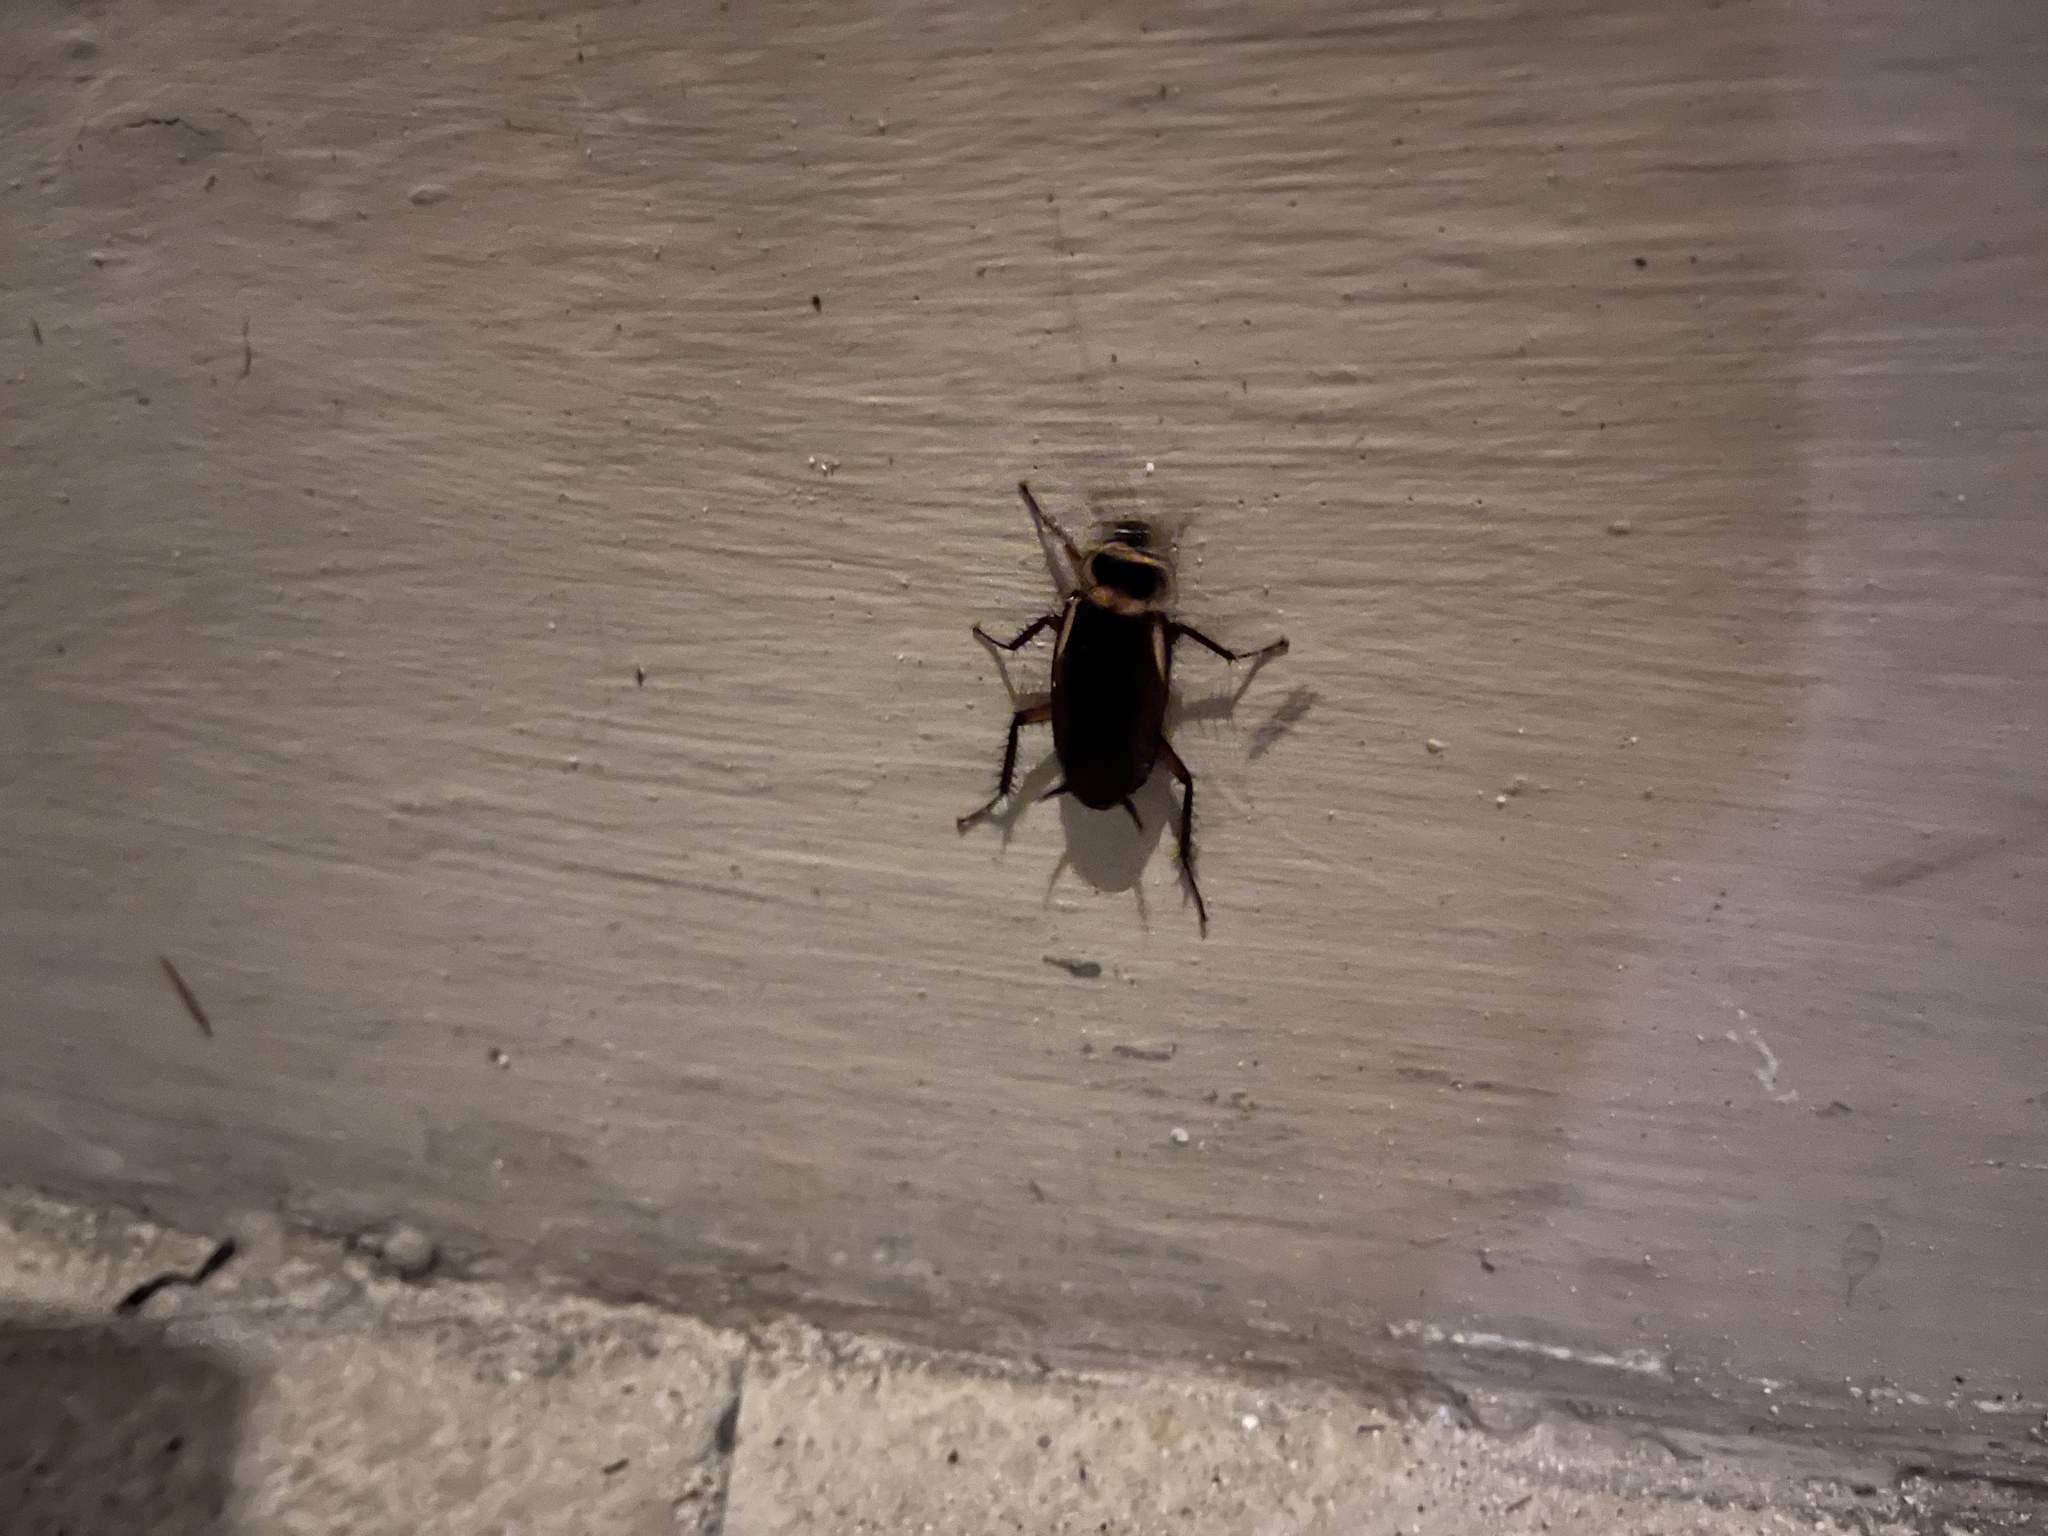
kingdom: Animalia
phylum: Arthropoda
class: Insecta
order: Blattodea
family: Blattidae
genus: Periplaneta
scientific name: Periplaneta australasiae
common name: Australian cockroach
